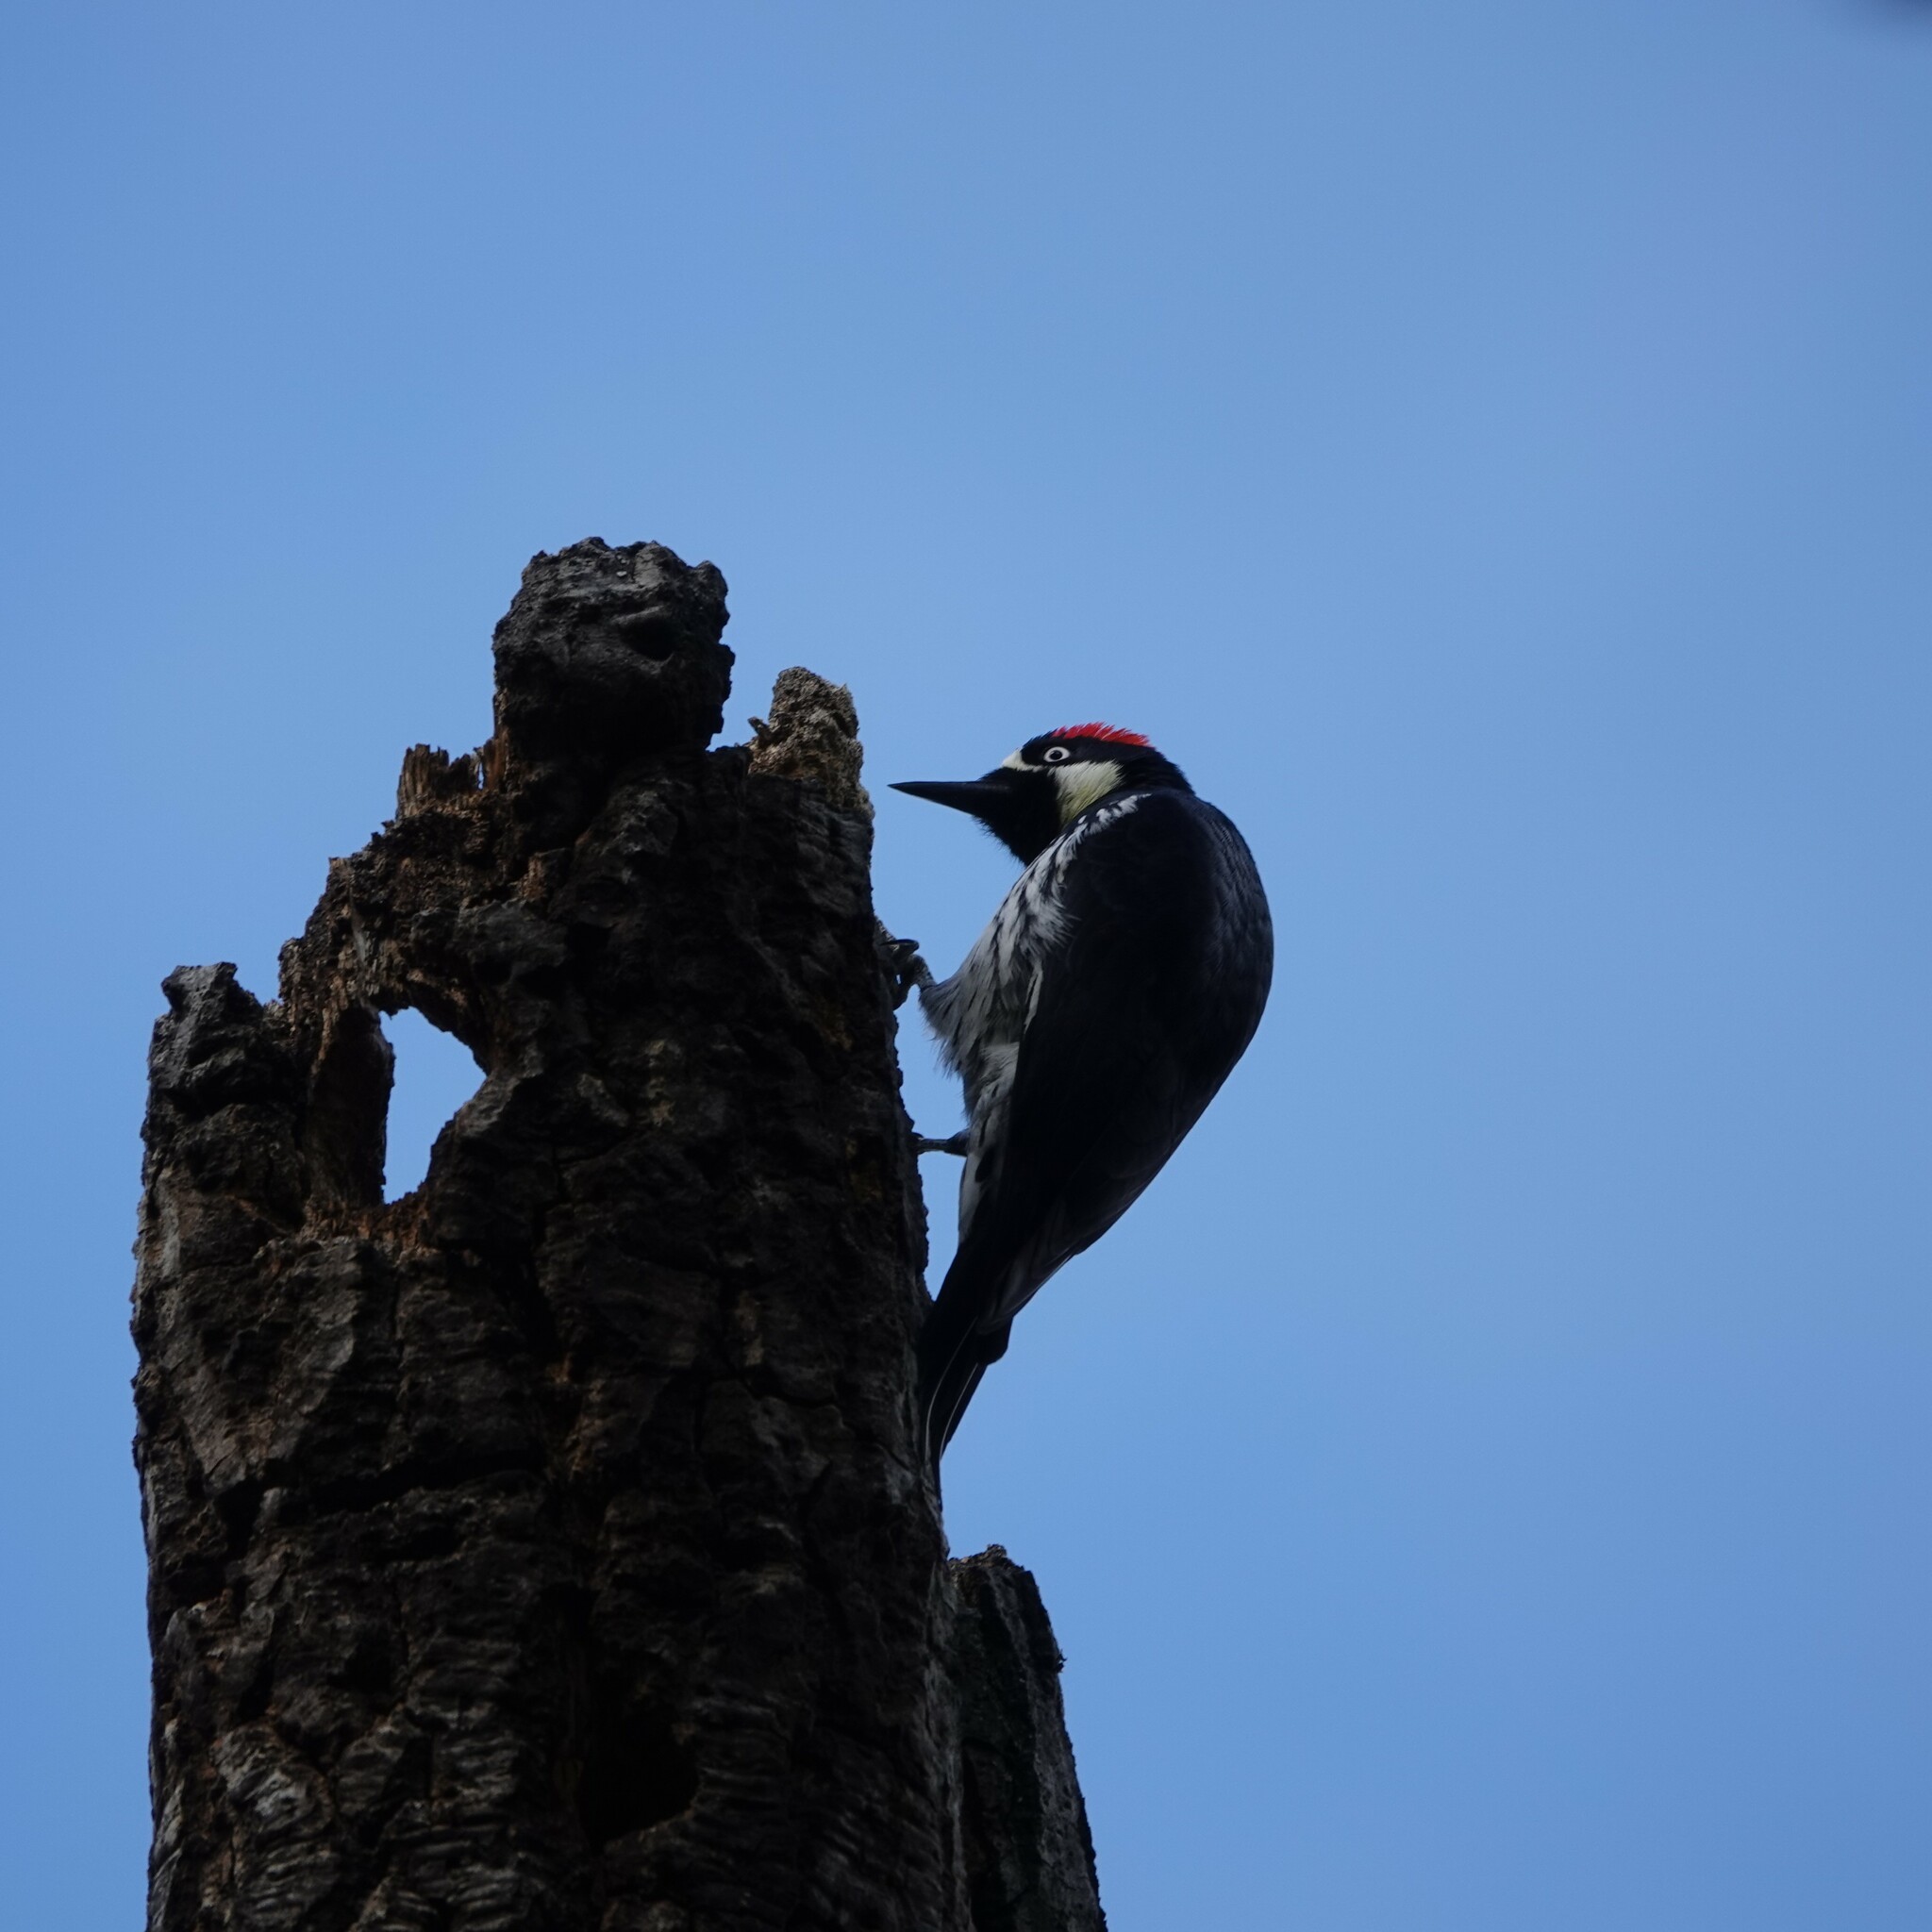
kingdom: Animalia
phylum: Chordata
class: Aves
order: Piciformes
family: Picidae
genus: Melanerpes
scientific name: Melanerpes formicivorus
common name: Acorn woodpecker
